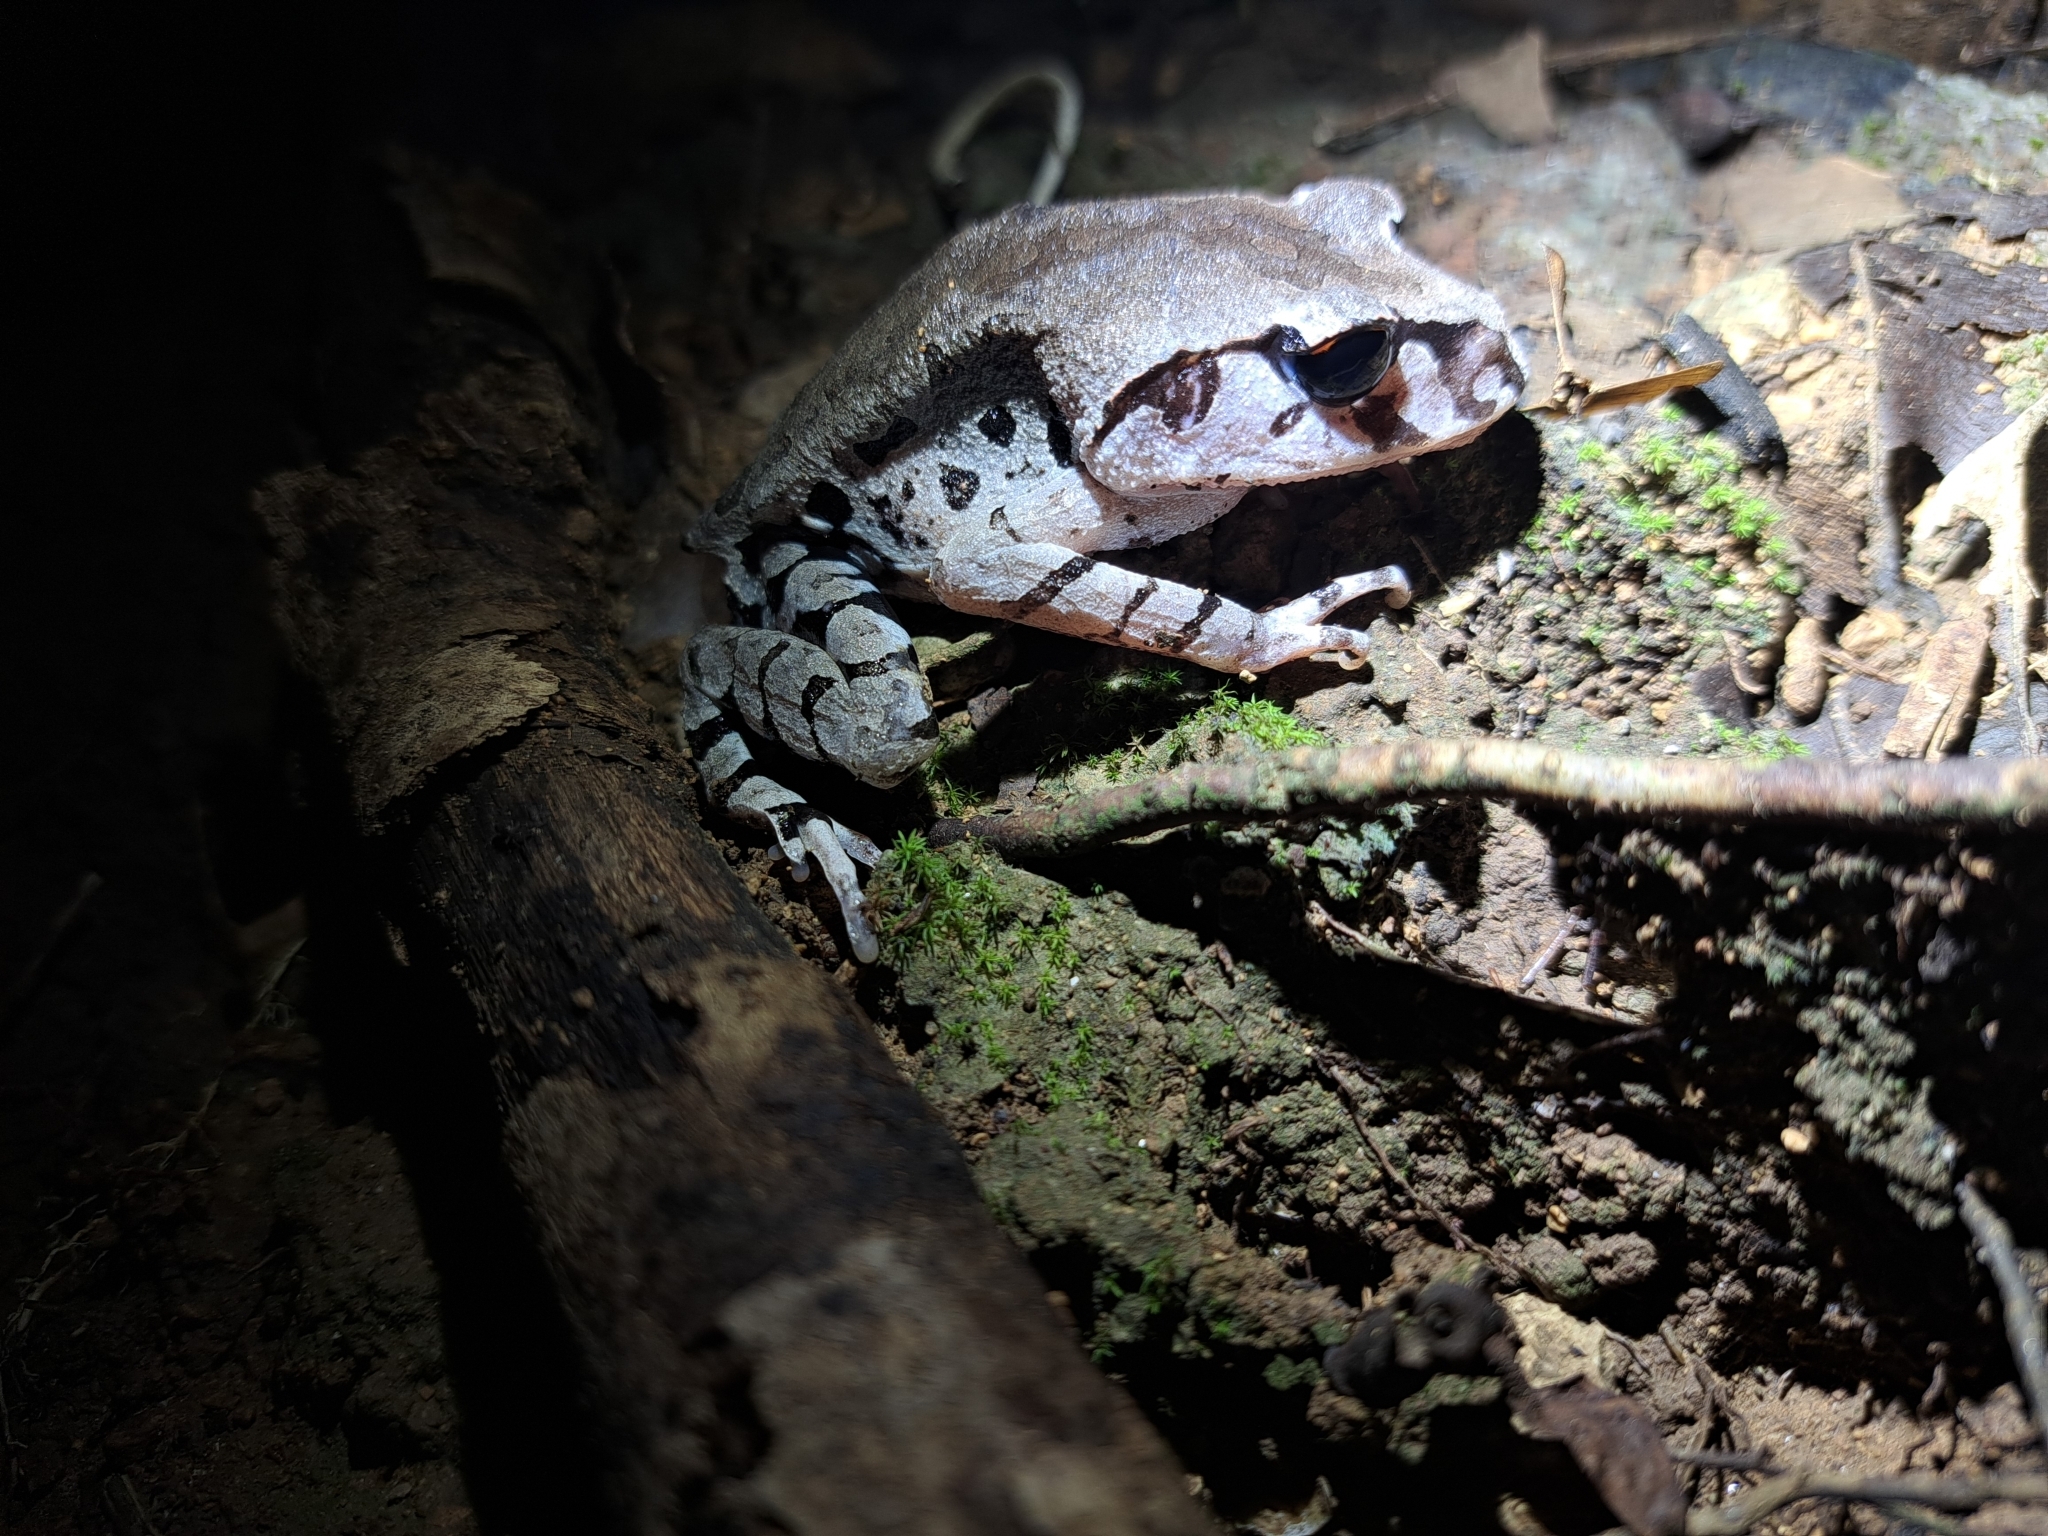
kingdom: Animalia
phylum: Chordata
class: Amphibia
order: Anura
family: Megophryidae
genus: Leptobrachium
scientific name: Leptobrachium smithi
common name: Smith's litter frog
